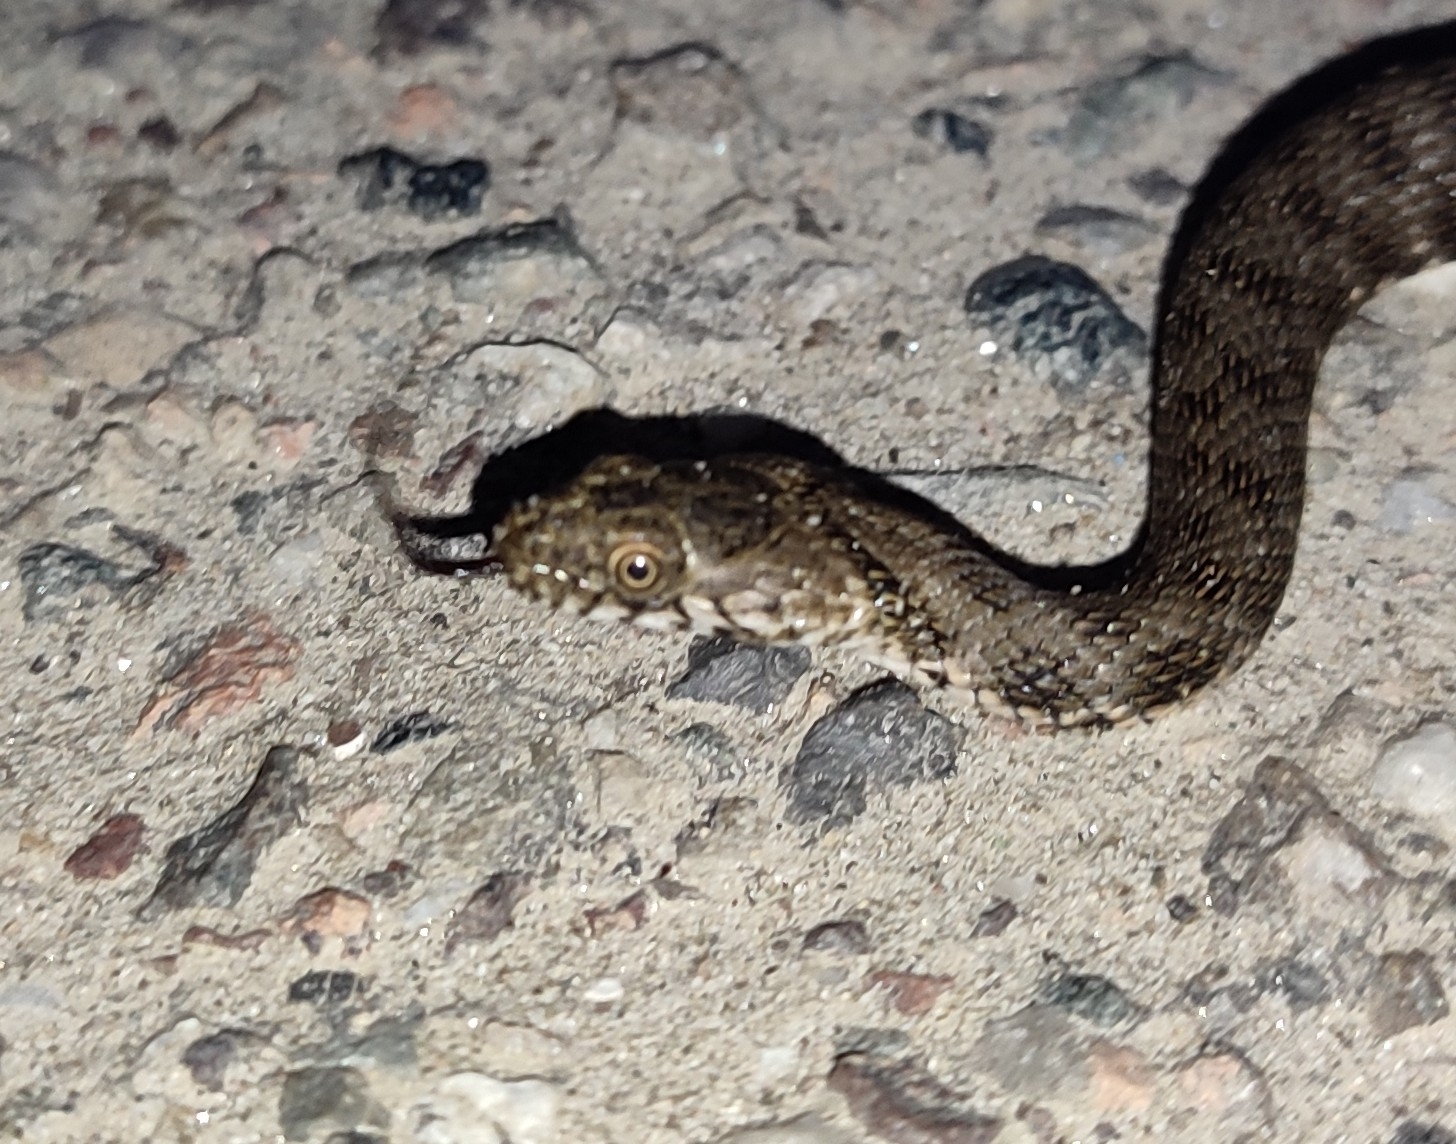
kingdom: Animalia
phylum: Chordata
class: Squamata
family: Colubridae
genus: Natrix
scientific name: Natrix tessellata
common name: Dice snake
